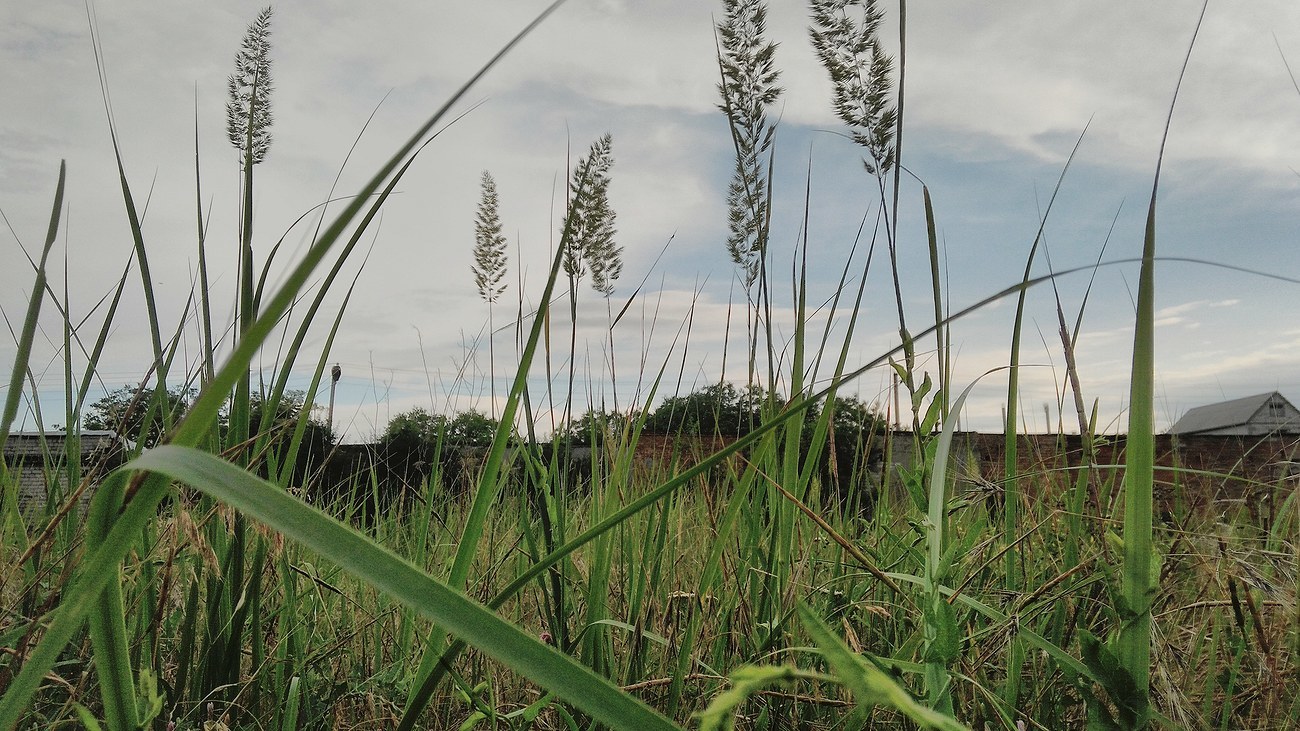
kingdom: Plantae
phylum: Tracheophyta
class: Liliopsida
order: Poales
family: Poaceae
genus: Calamagrostis
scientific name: Calamagrostis epigejos
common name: Wood small-reed
